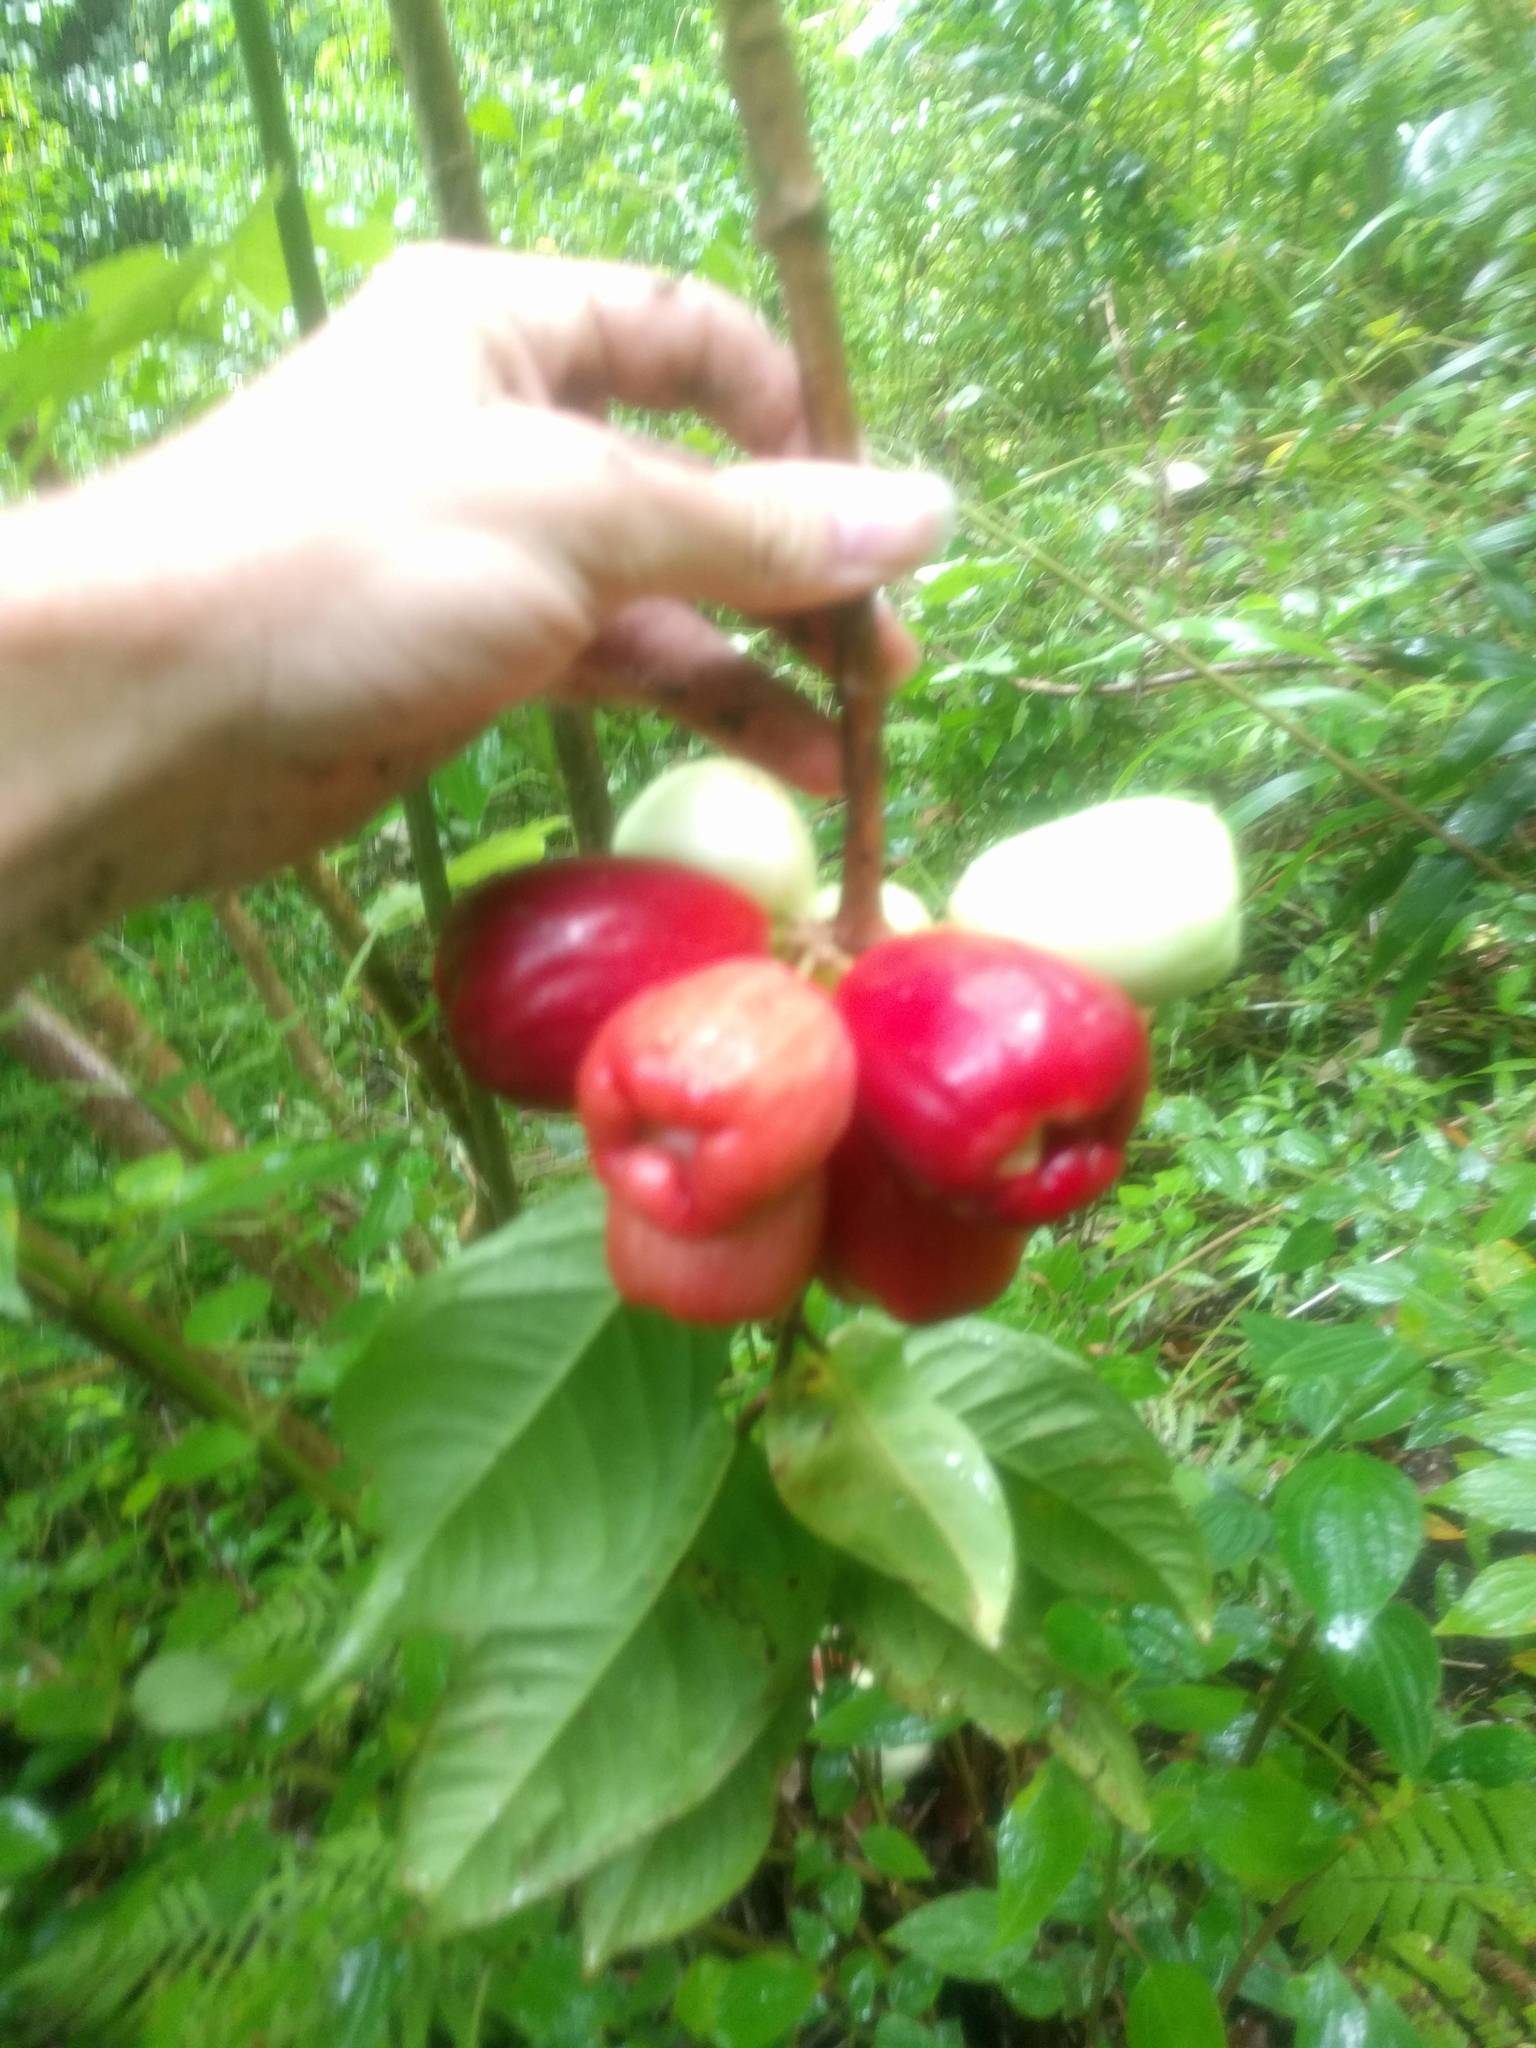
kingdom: Plantae
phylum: Tracheophyta
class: Magnoliopsida
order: Myrtales
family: Myrtaceae
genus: Syzygium
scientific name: Syzygium malaccense
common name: Malaysian apple
